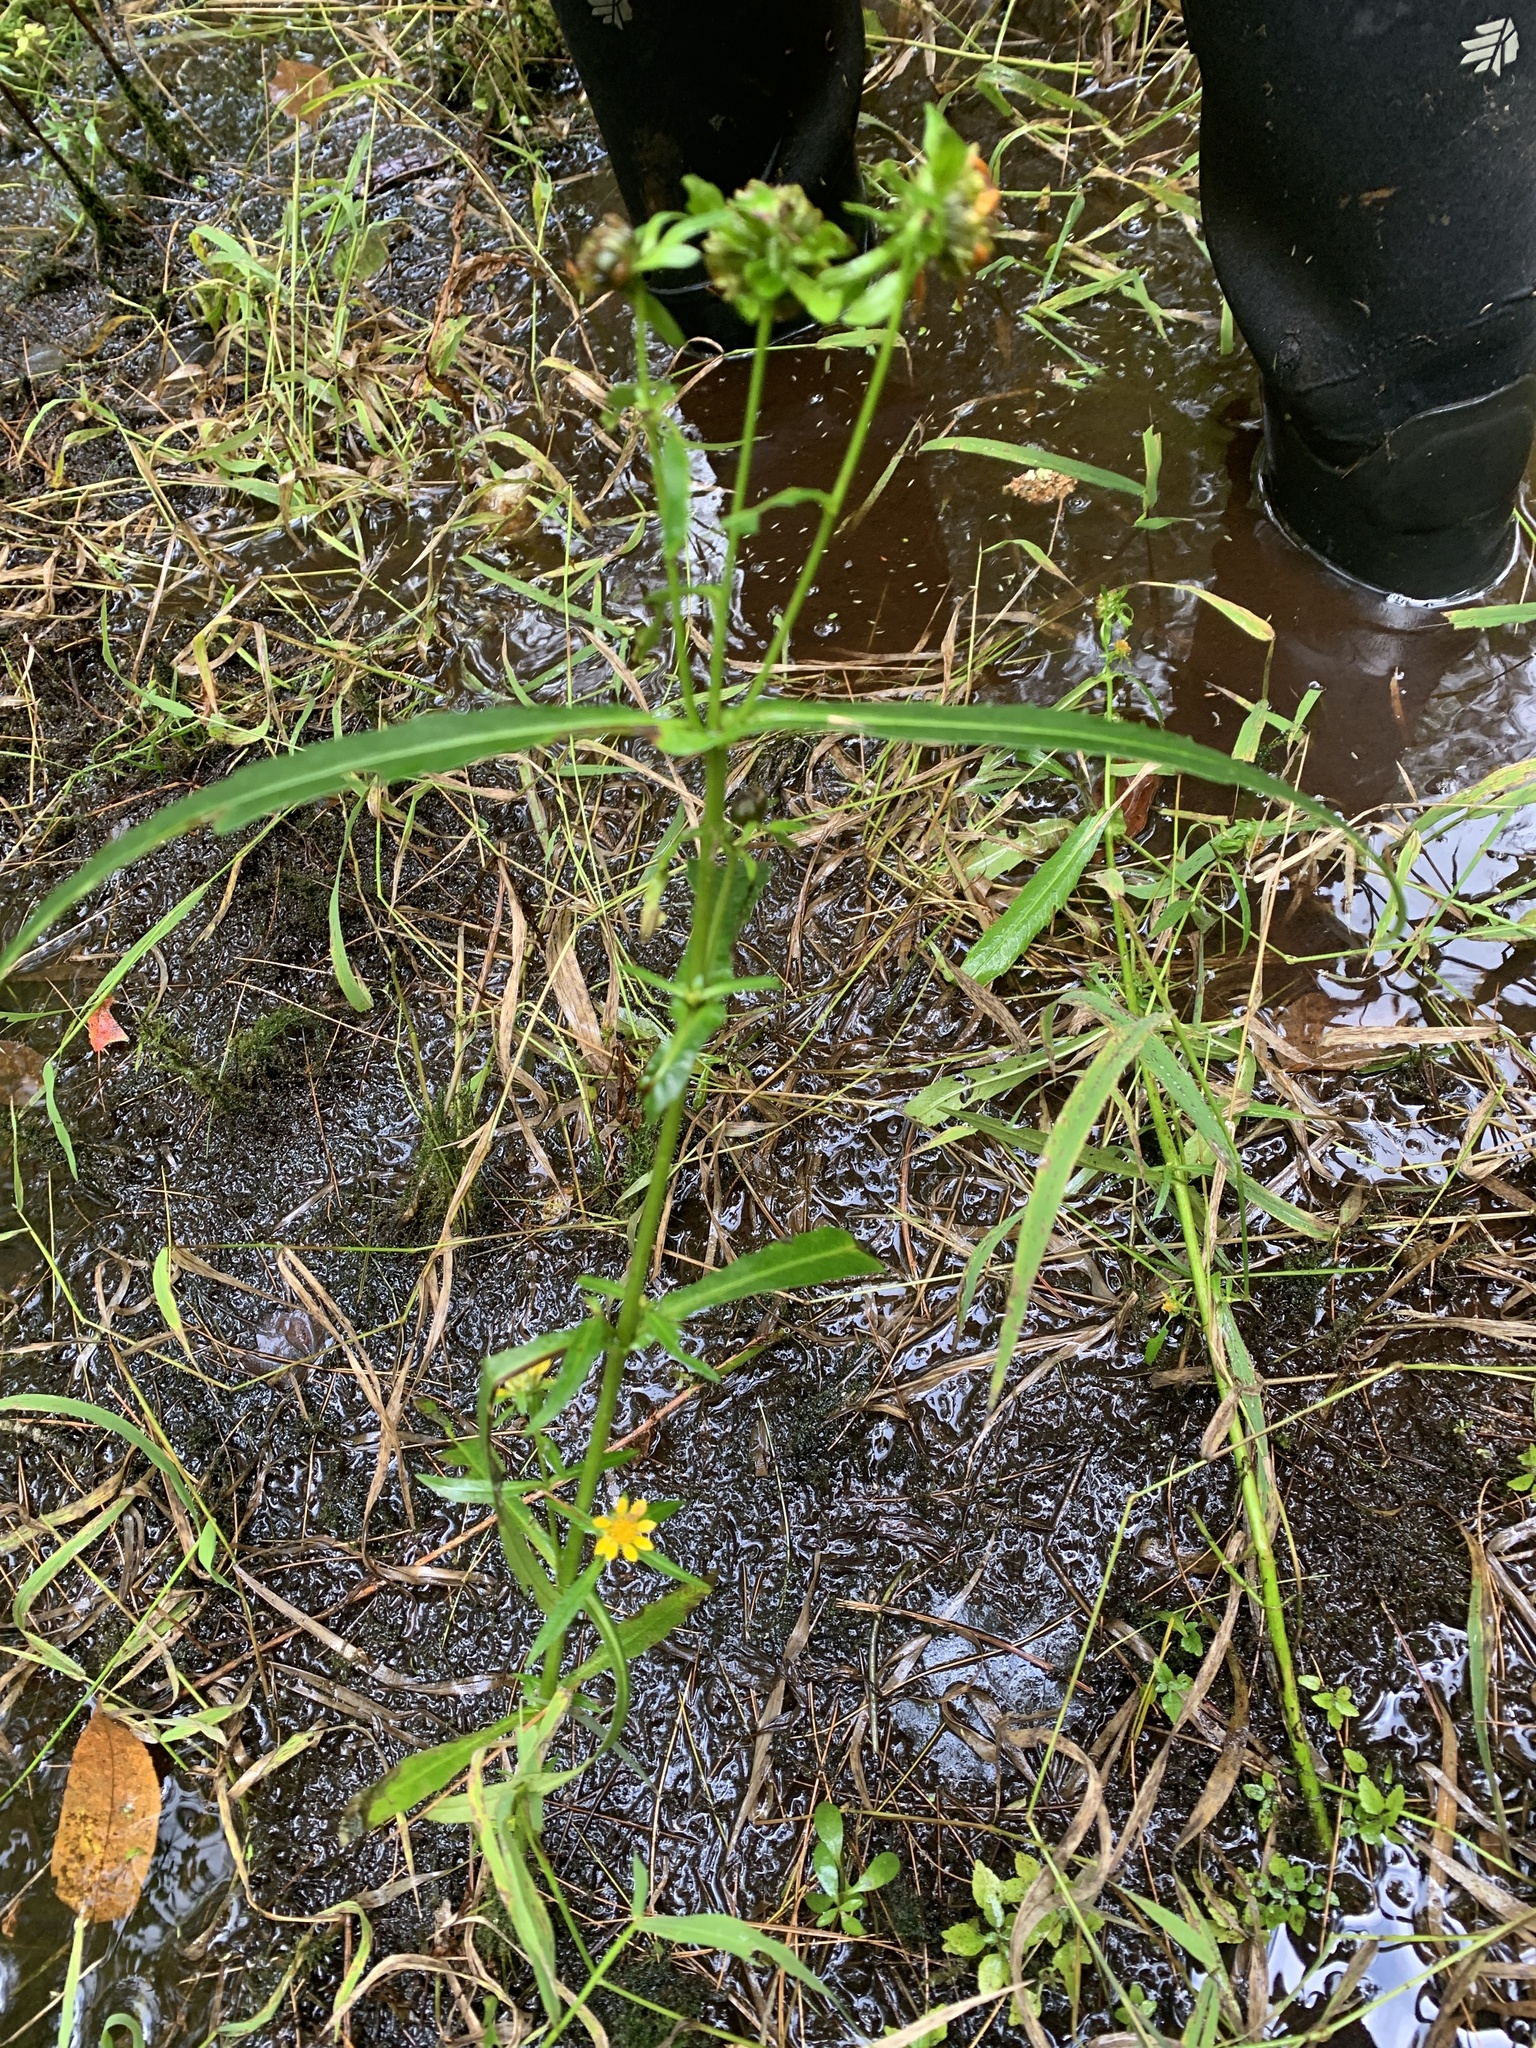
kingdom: Plantae
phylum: Tracheophyta
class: Magnoliopsida
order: Asterales
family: Asteraceae
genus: Bidens
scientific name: Bidens cernua
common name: Nodding bur-marigold
